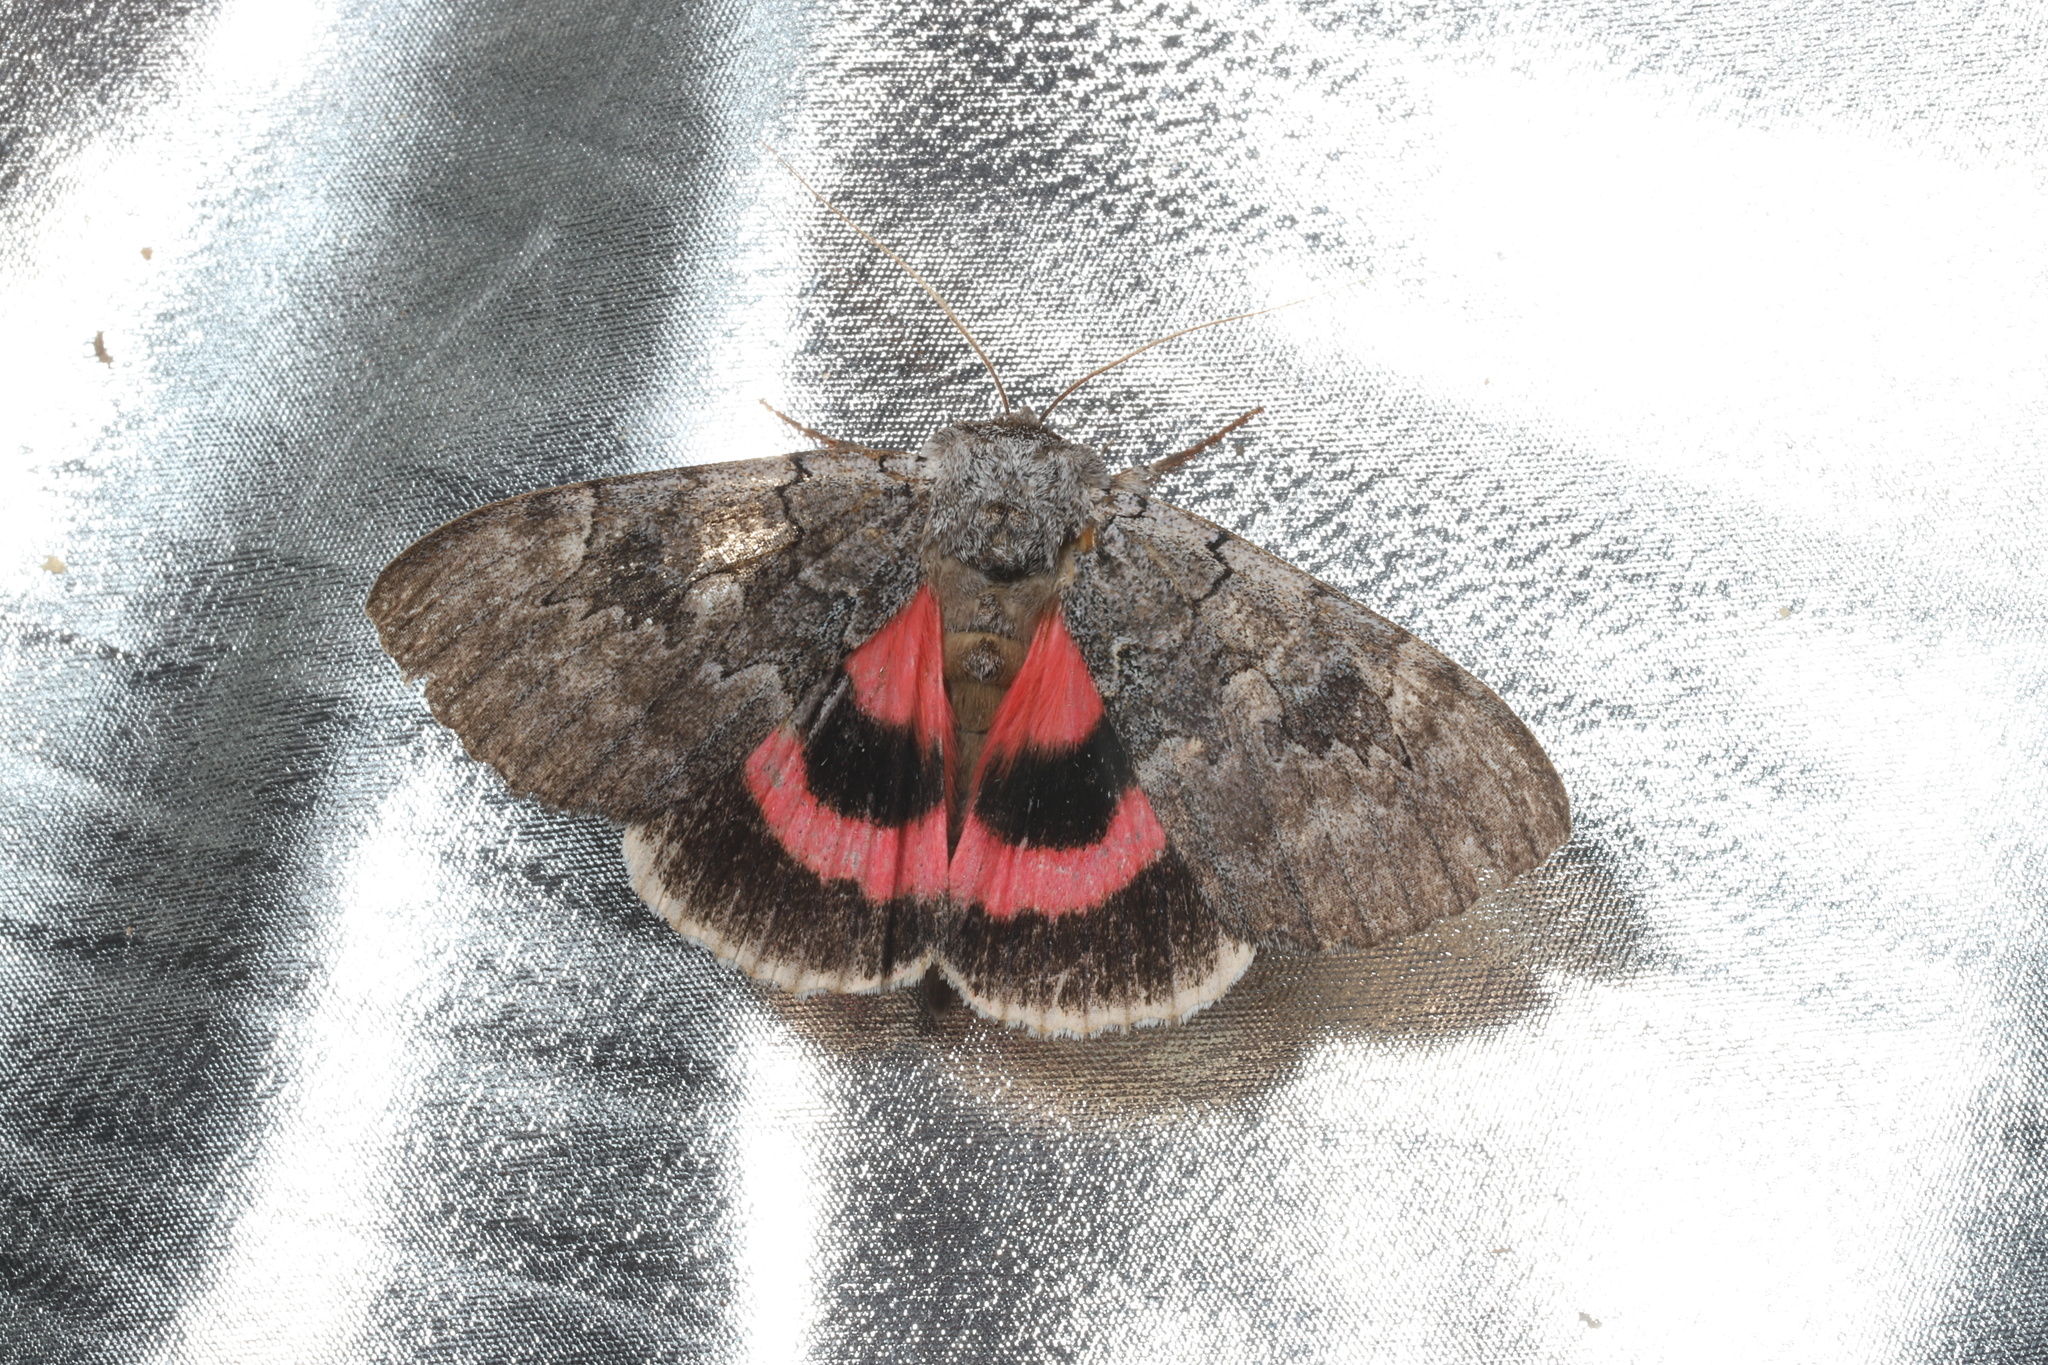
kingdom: Animalia
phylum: Arthropoda
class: Insecta
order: Lepidoptera
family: Erebidae
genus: Catocala
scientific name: Catocala concumbens
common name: Pink underwing
